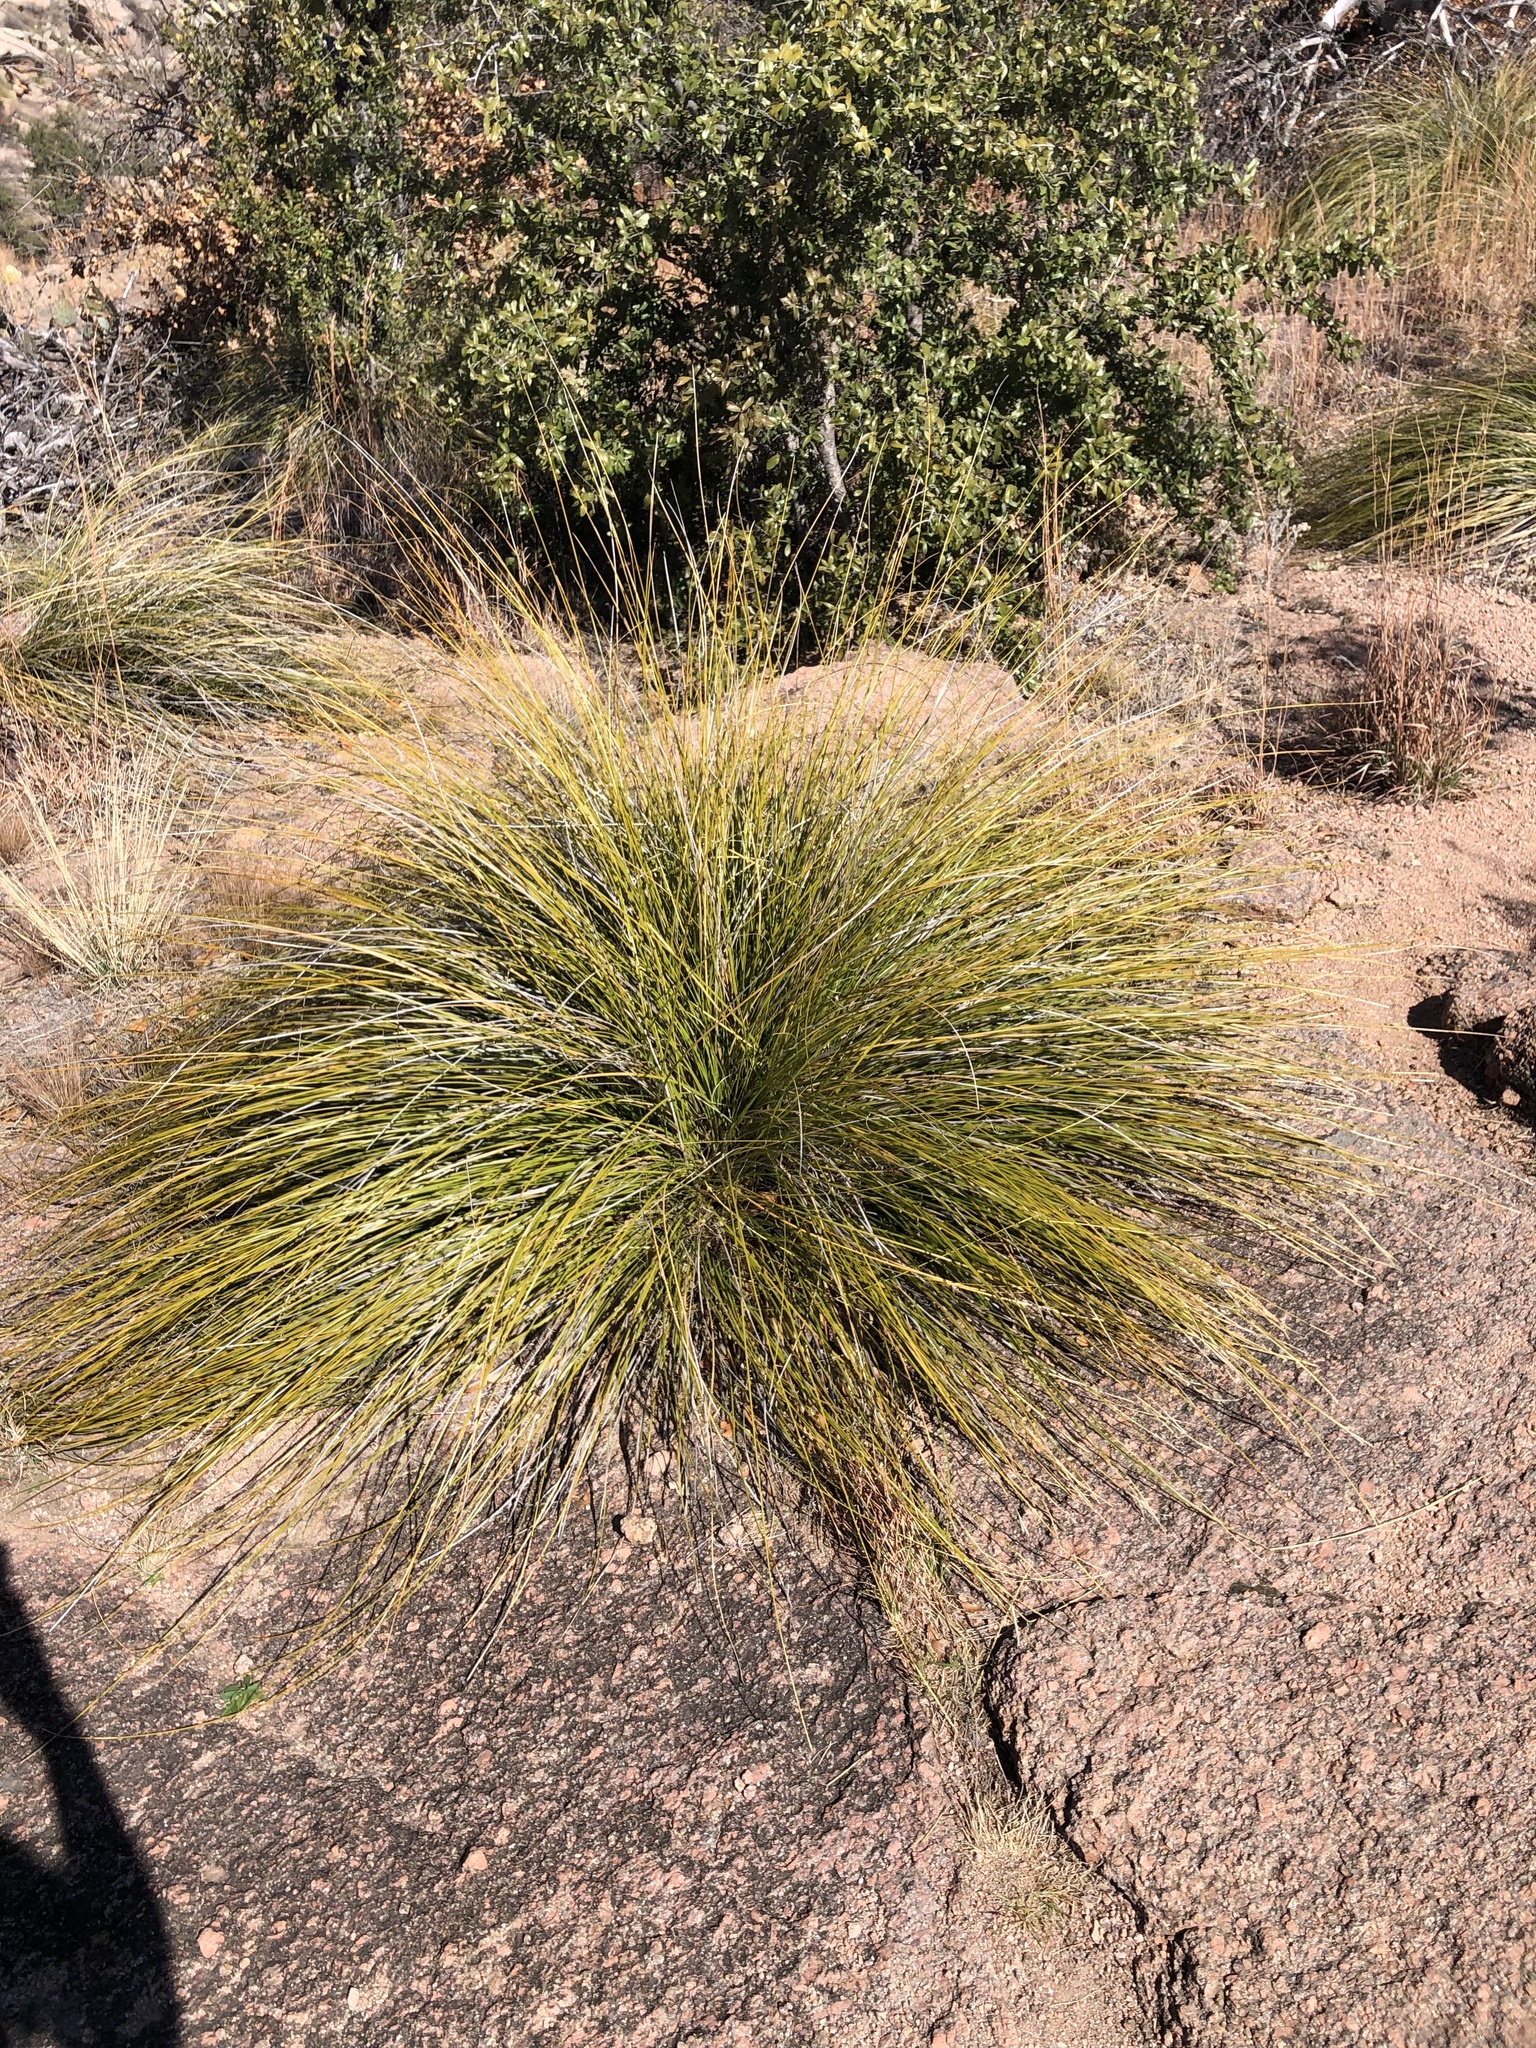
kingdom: Plantae
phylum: Tracheophyta
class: Liliopsida
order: Asparagales
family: Asparagaceae
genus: Nolina
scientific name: Nolina texana
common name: Texas sacahuiste
